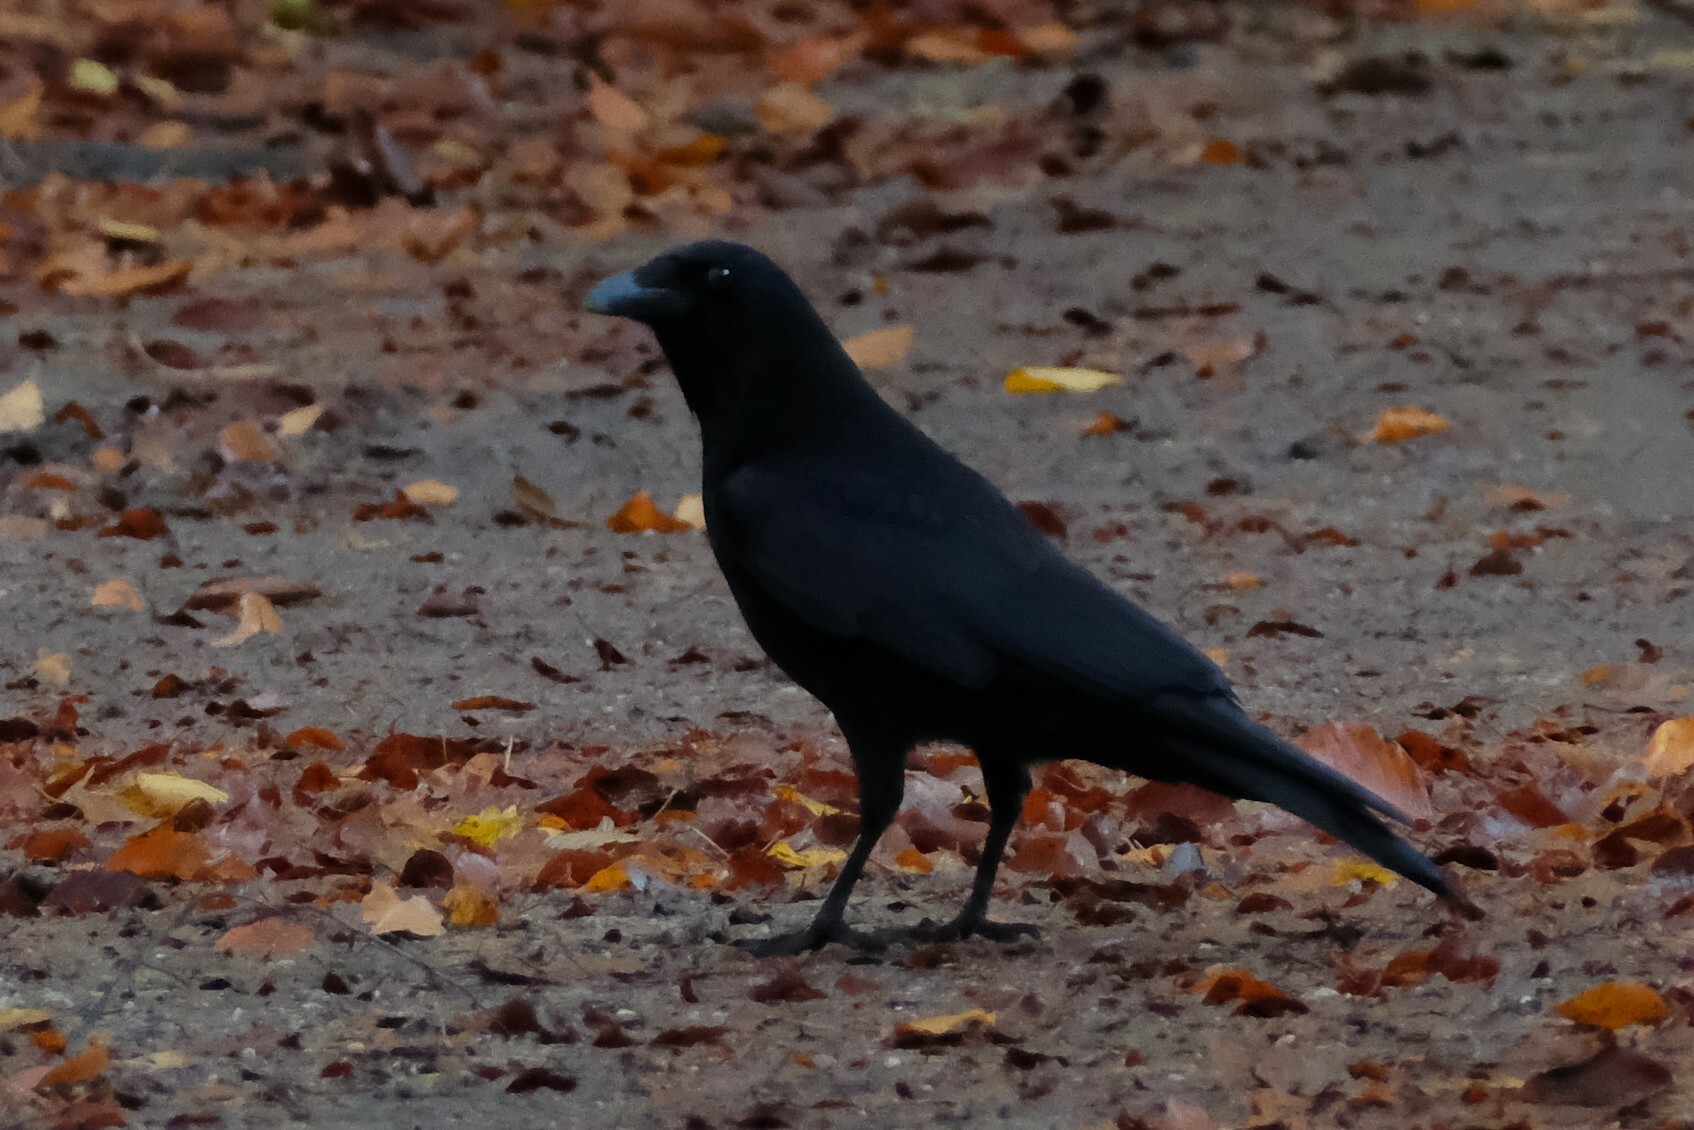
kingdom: Animalia
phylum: Chordata
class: Aves
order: Passeriformes
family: Corvidae
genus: Corvus
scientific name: Corvus corone
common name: Carrion crow
